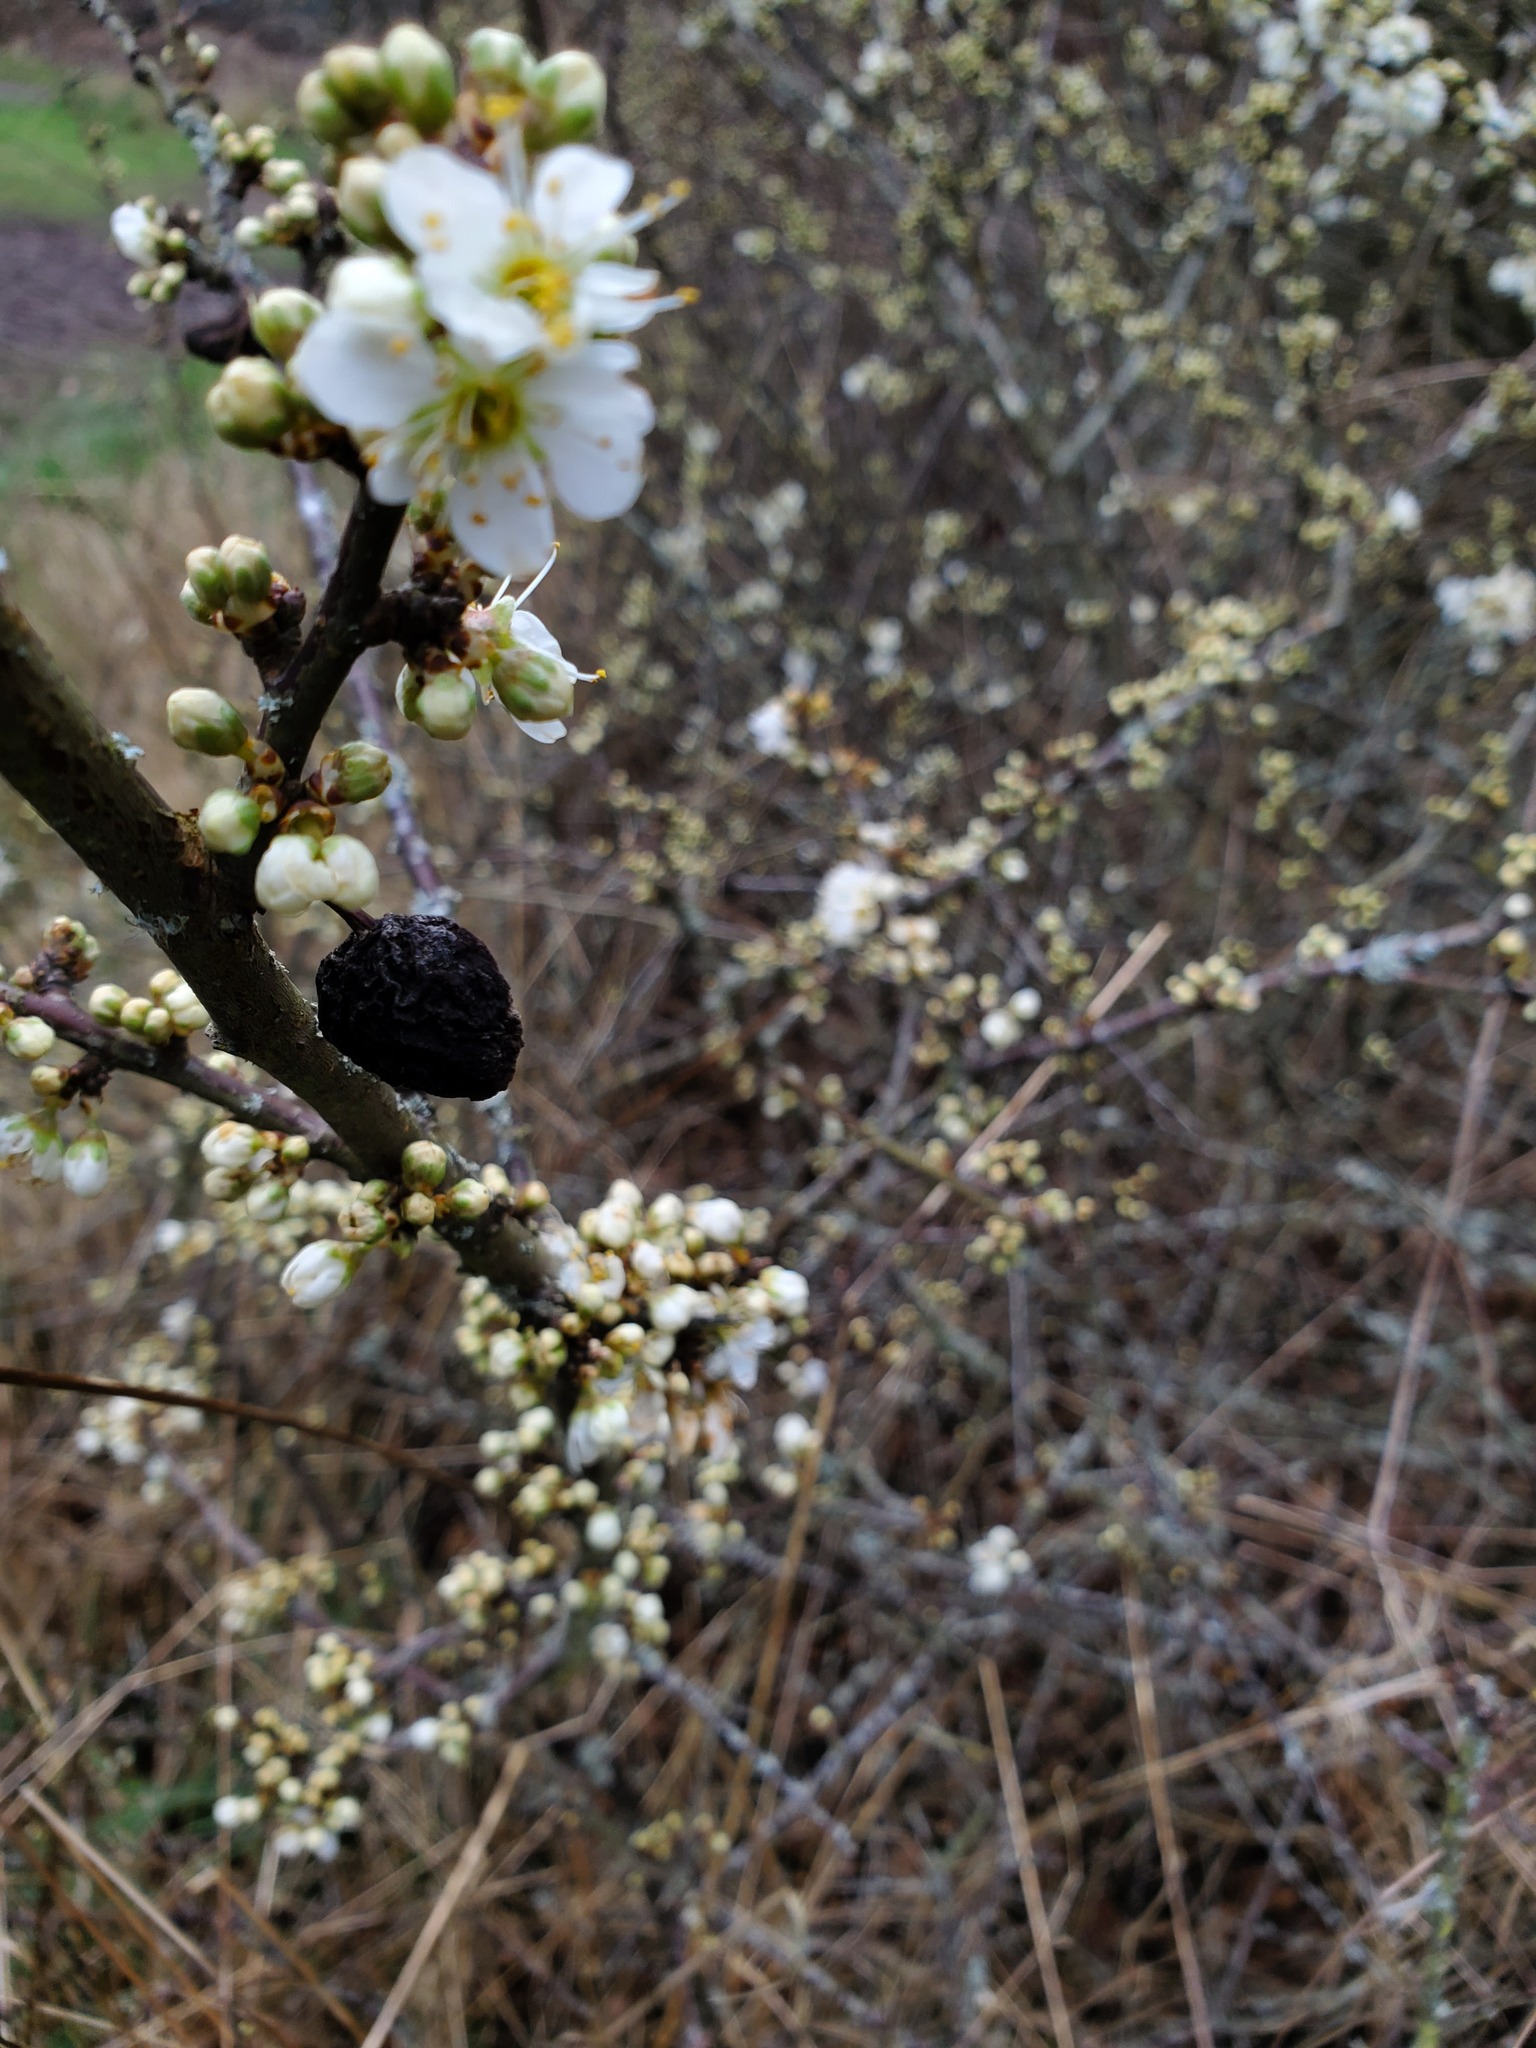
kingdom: Plantae
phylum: Tracheophyta
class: Magnoliopsida
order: Rosales
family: Rosaceae
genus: Prunus
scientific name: Prunus spinosa
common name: Blackthorn
